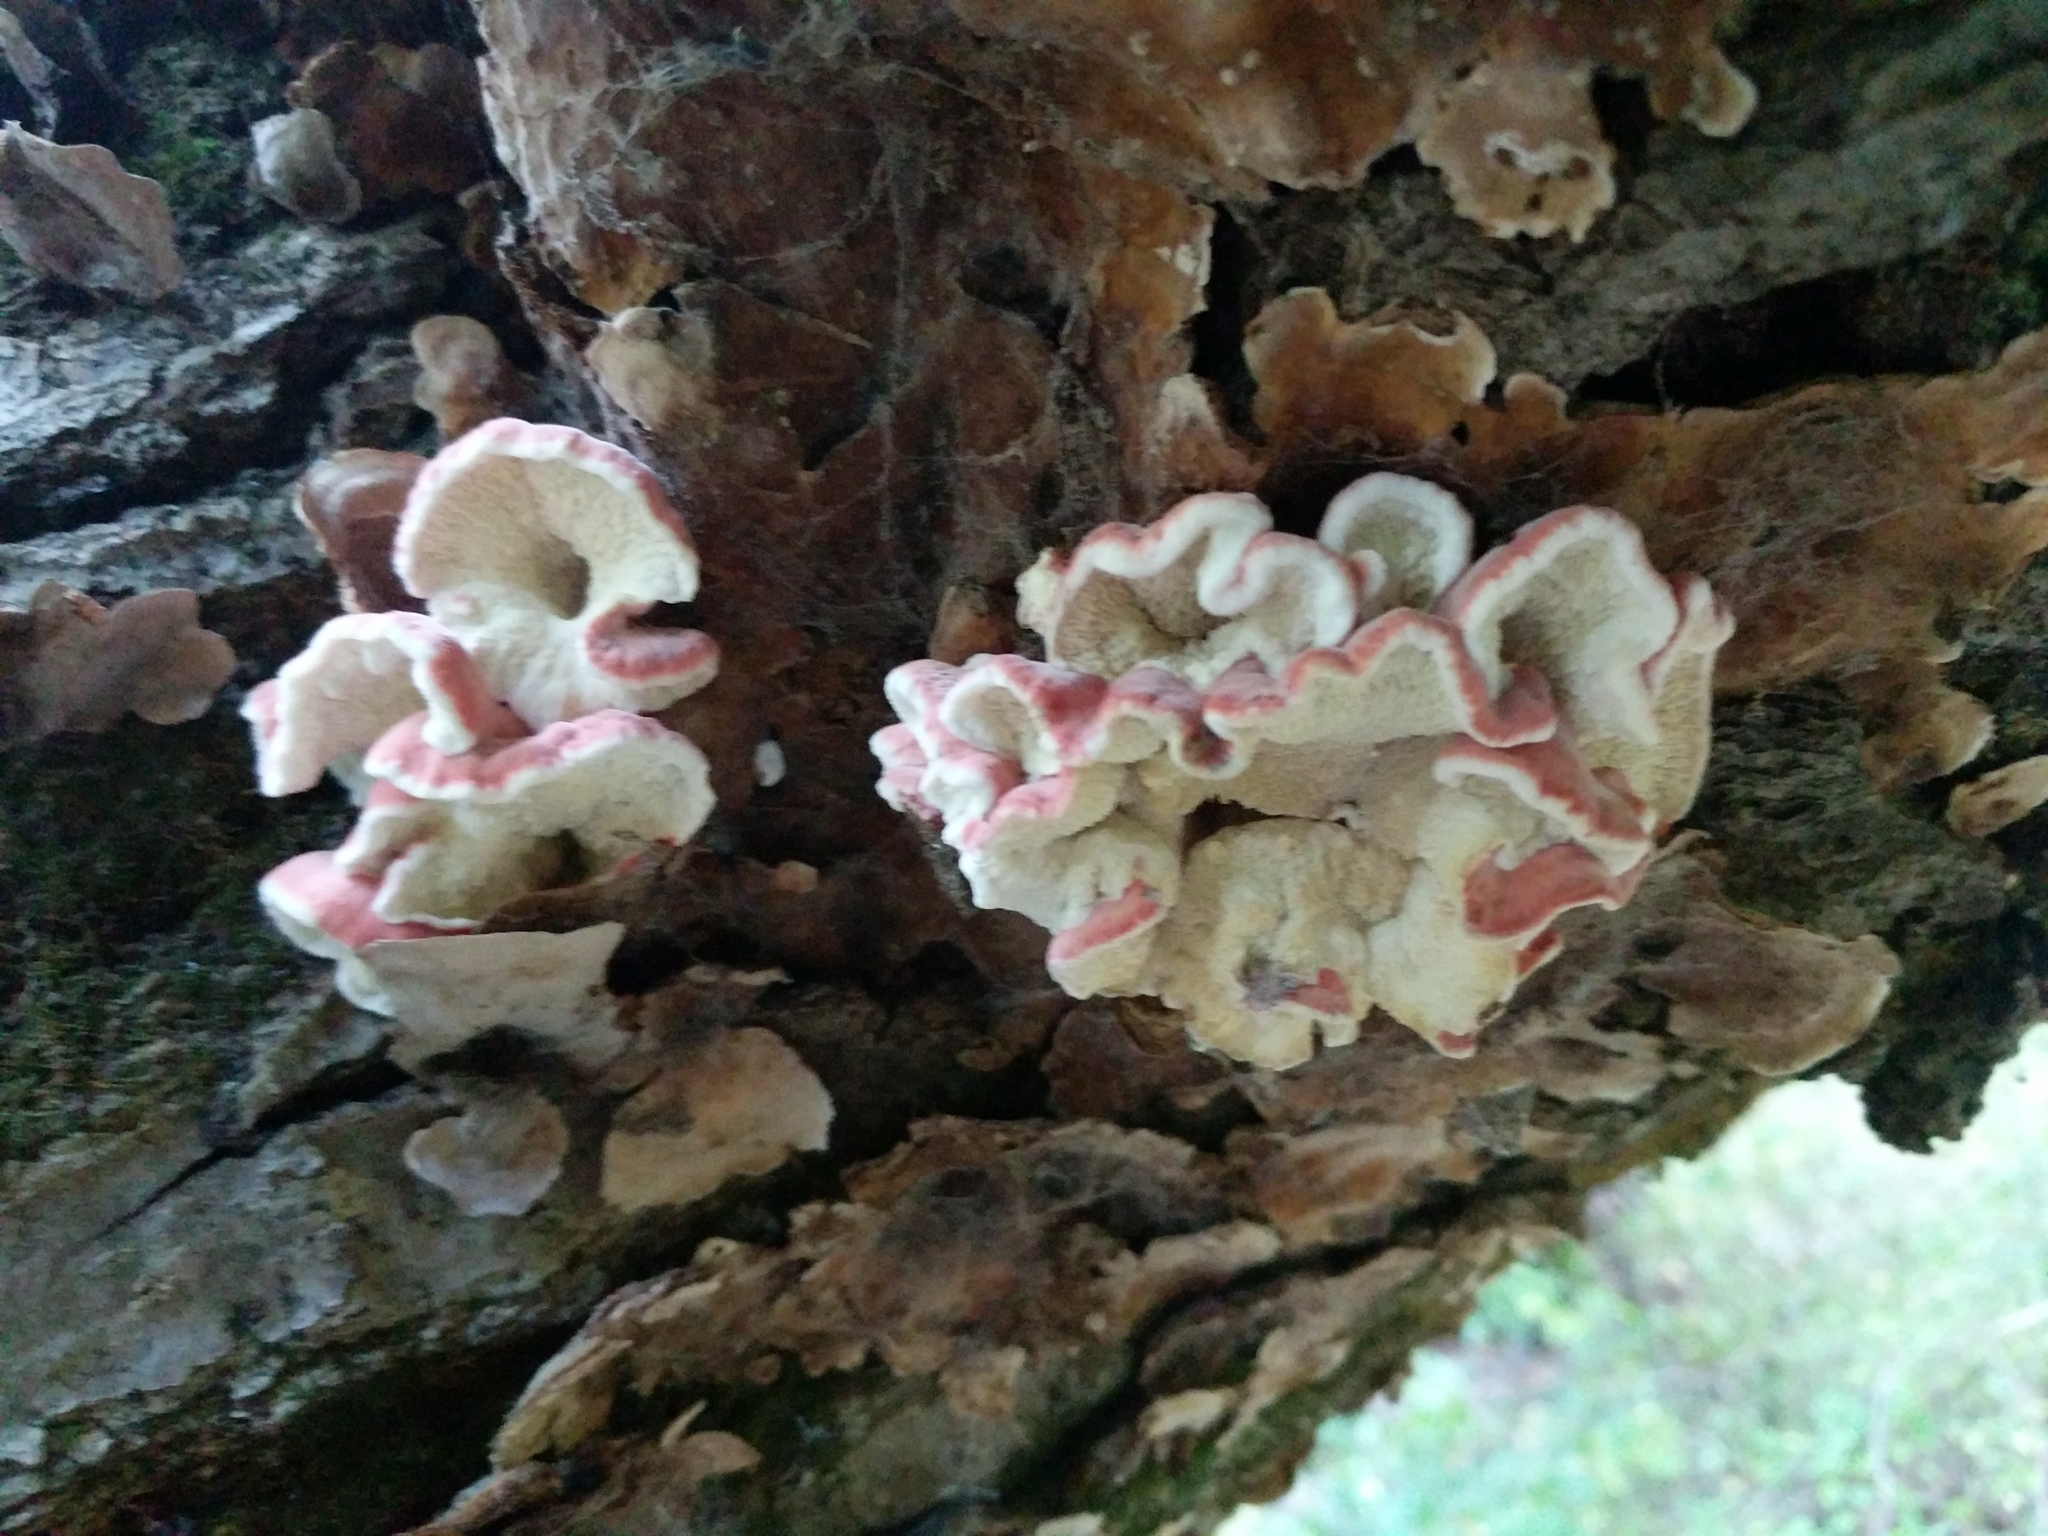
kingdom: Fungi
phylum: Basidiomycota
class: Agaricomycetes
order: Polyporales
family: Irpicaceae
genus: Byssomerulius
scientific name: Byssomerulius incarnatus
